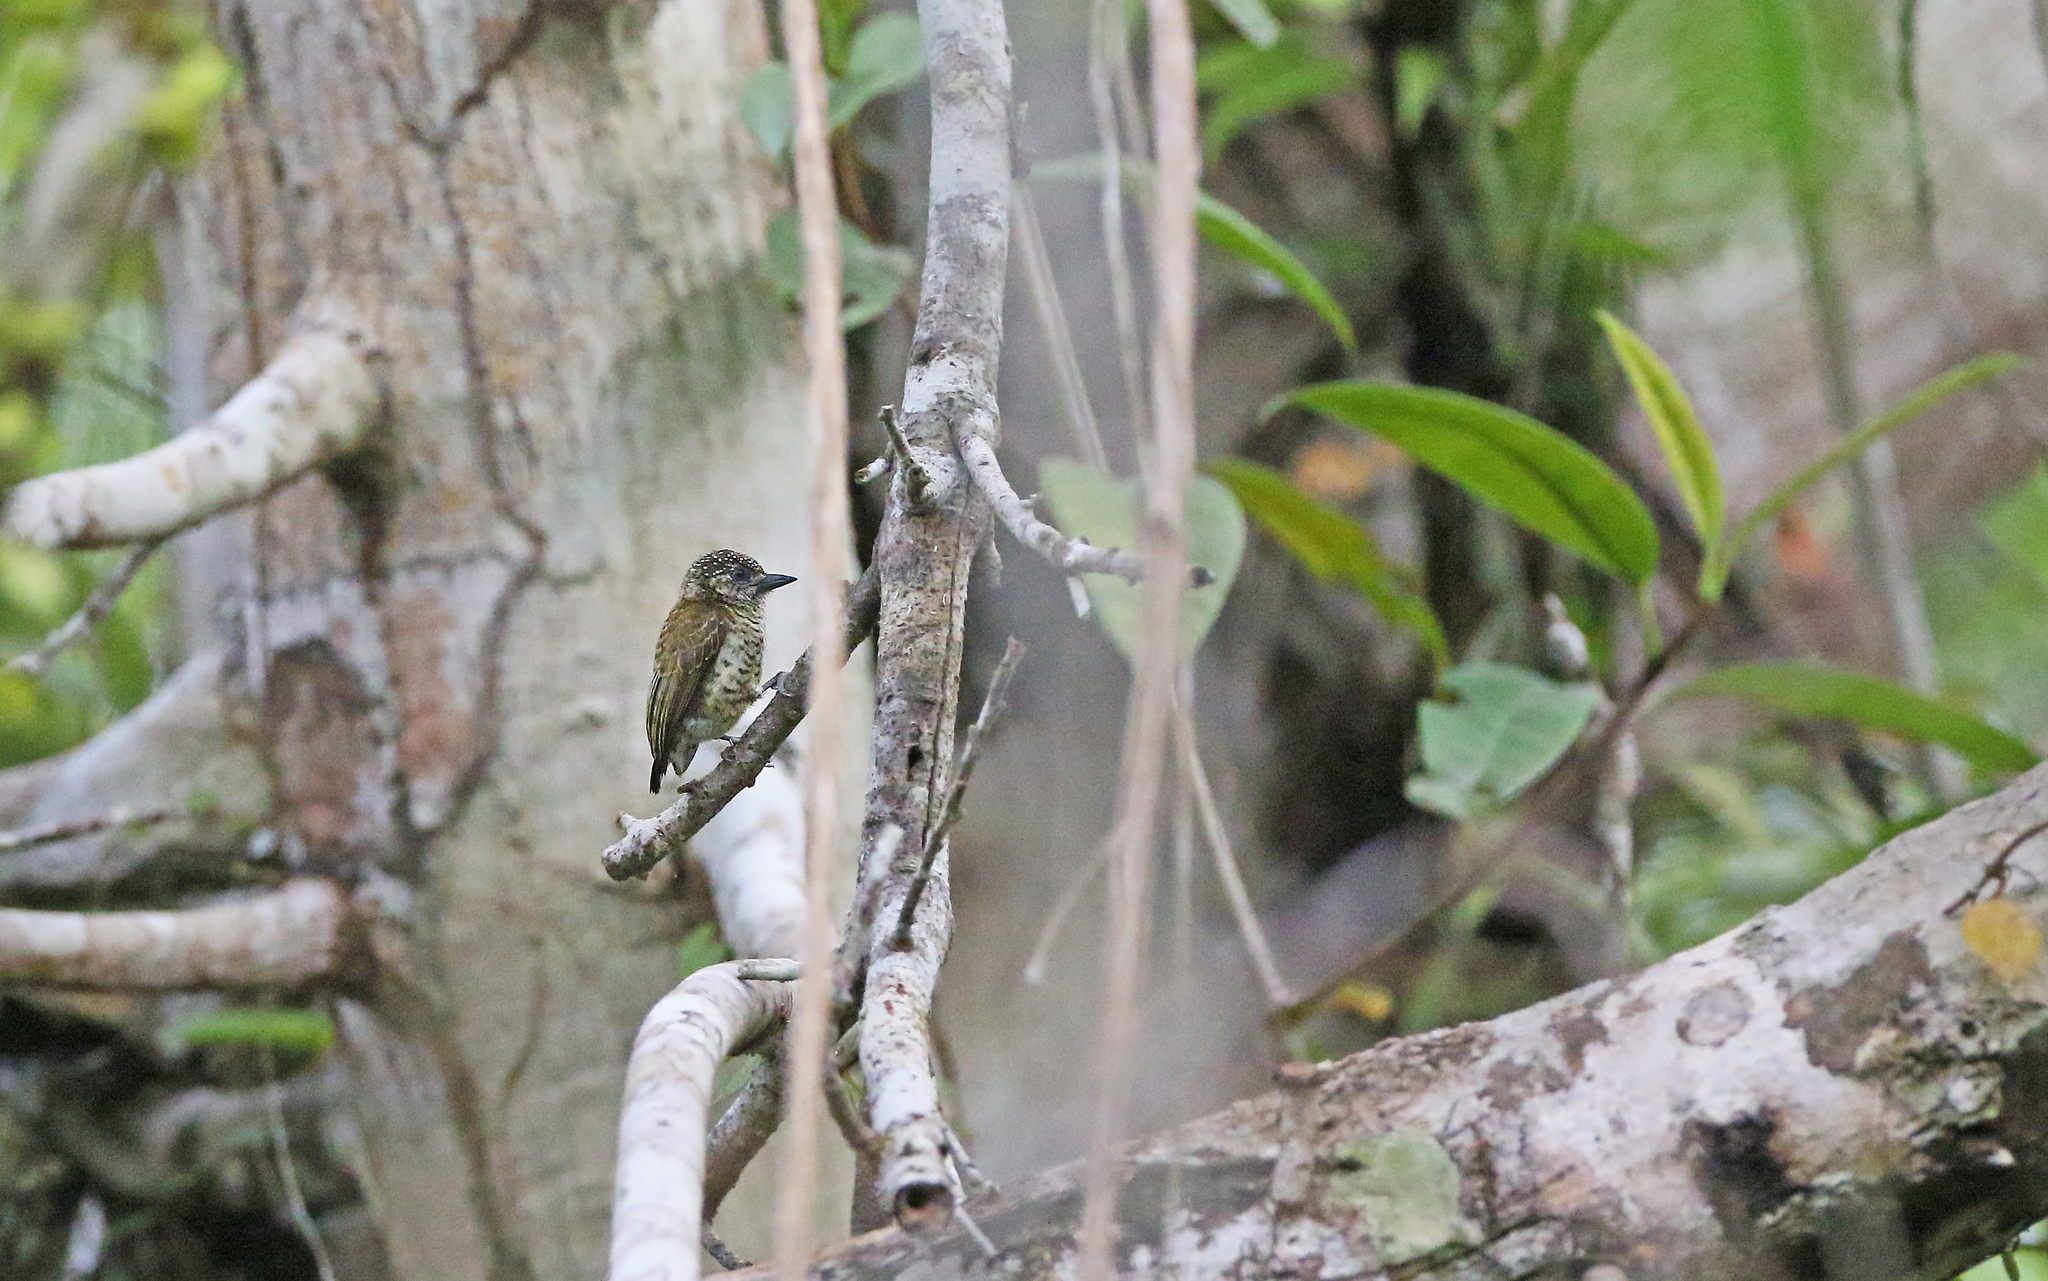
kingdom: Animalia
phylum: Chordata
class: Aves
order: Piciformes
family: Picidae
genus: Picumnus
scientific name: Picumnus lafresnayi
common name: Lafresnaye's piculet
